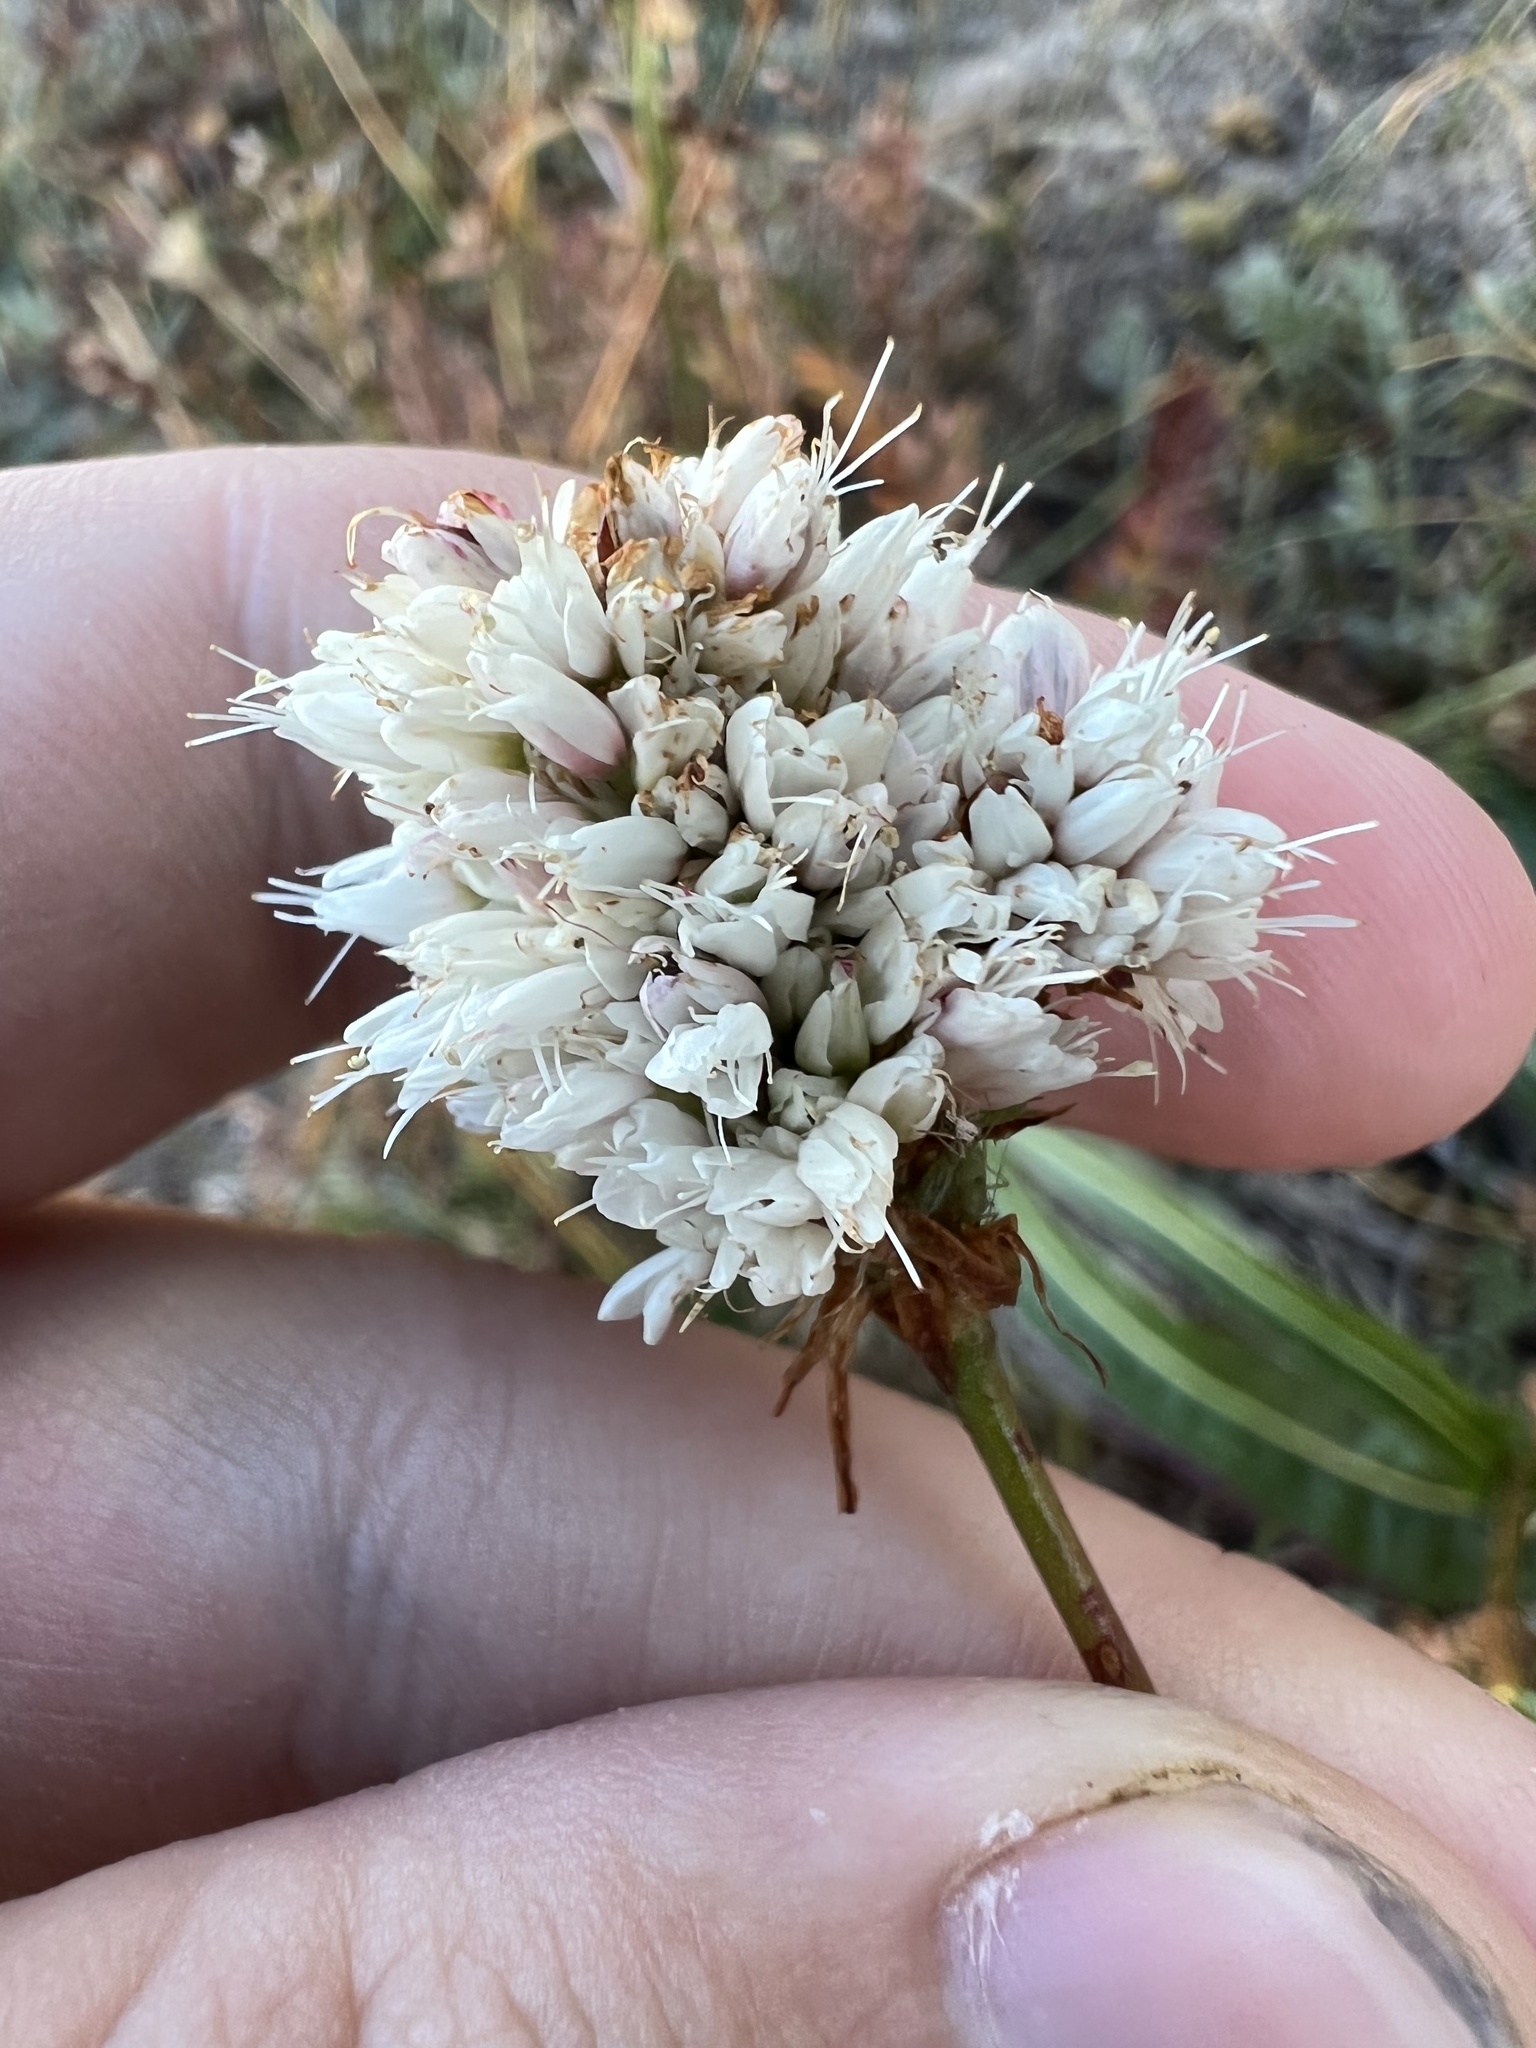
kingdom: Plantae
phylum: Tracheophyta
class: Magnoliopsida
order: Caryophyllales
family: Polygonaceae
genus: Bistorta
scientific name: Bistorta bistortoides
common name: American bistort
